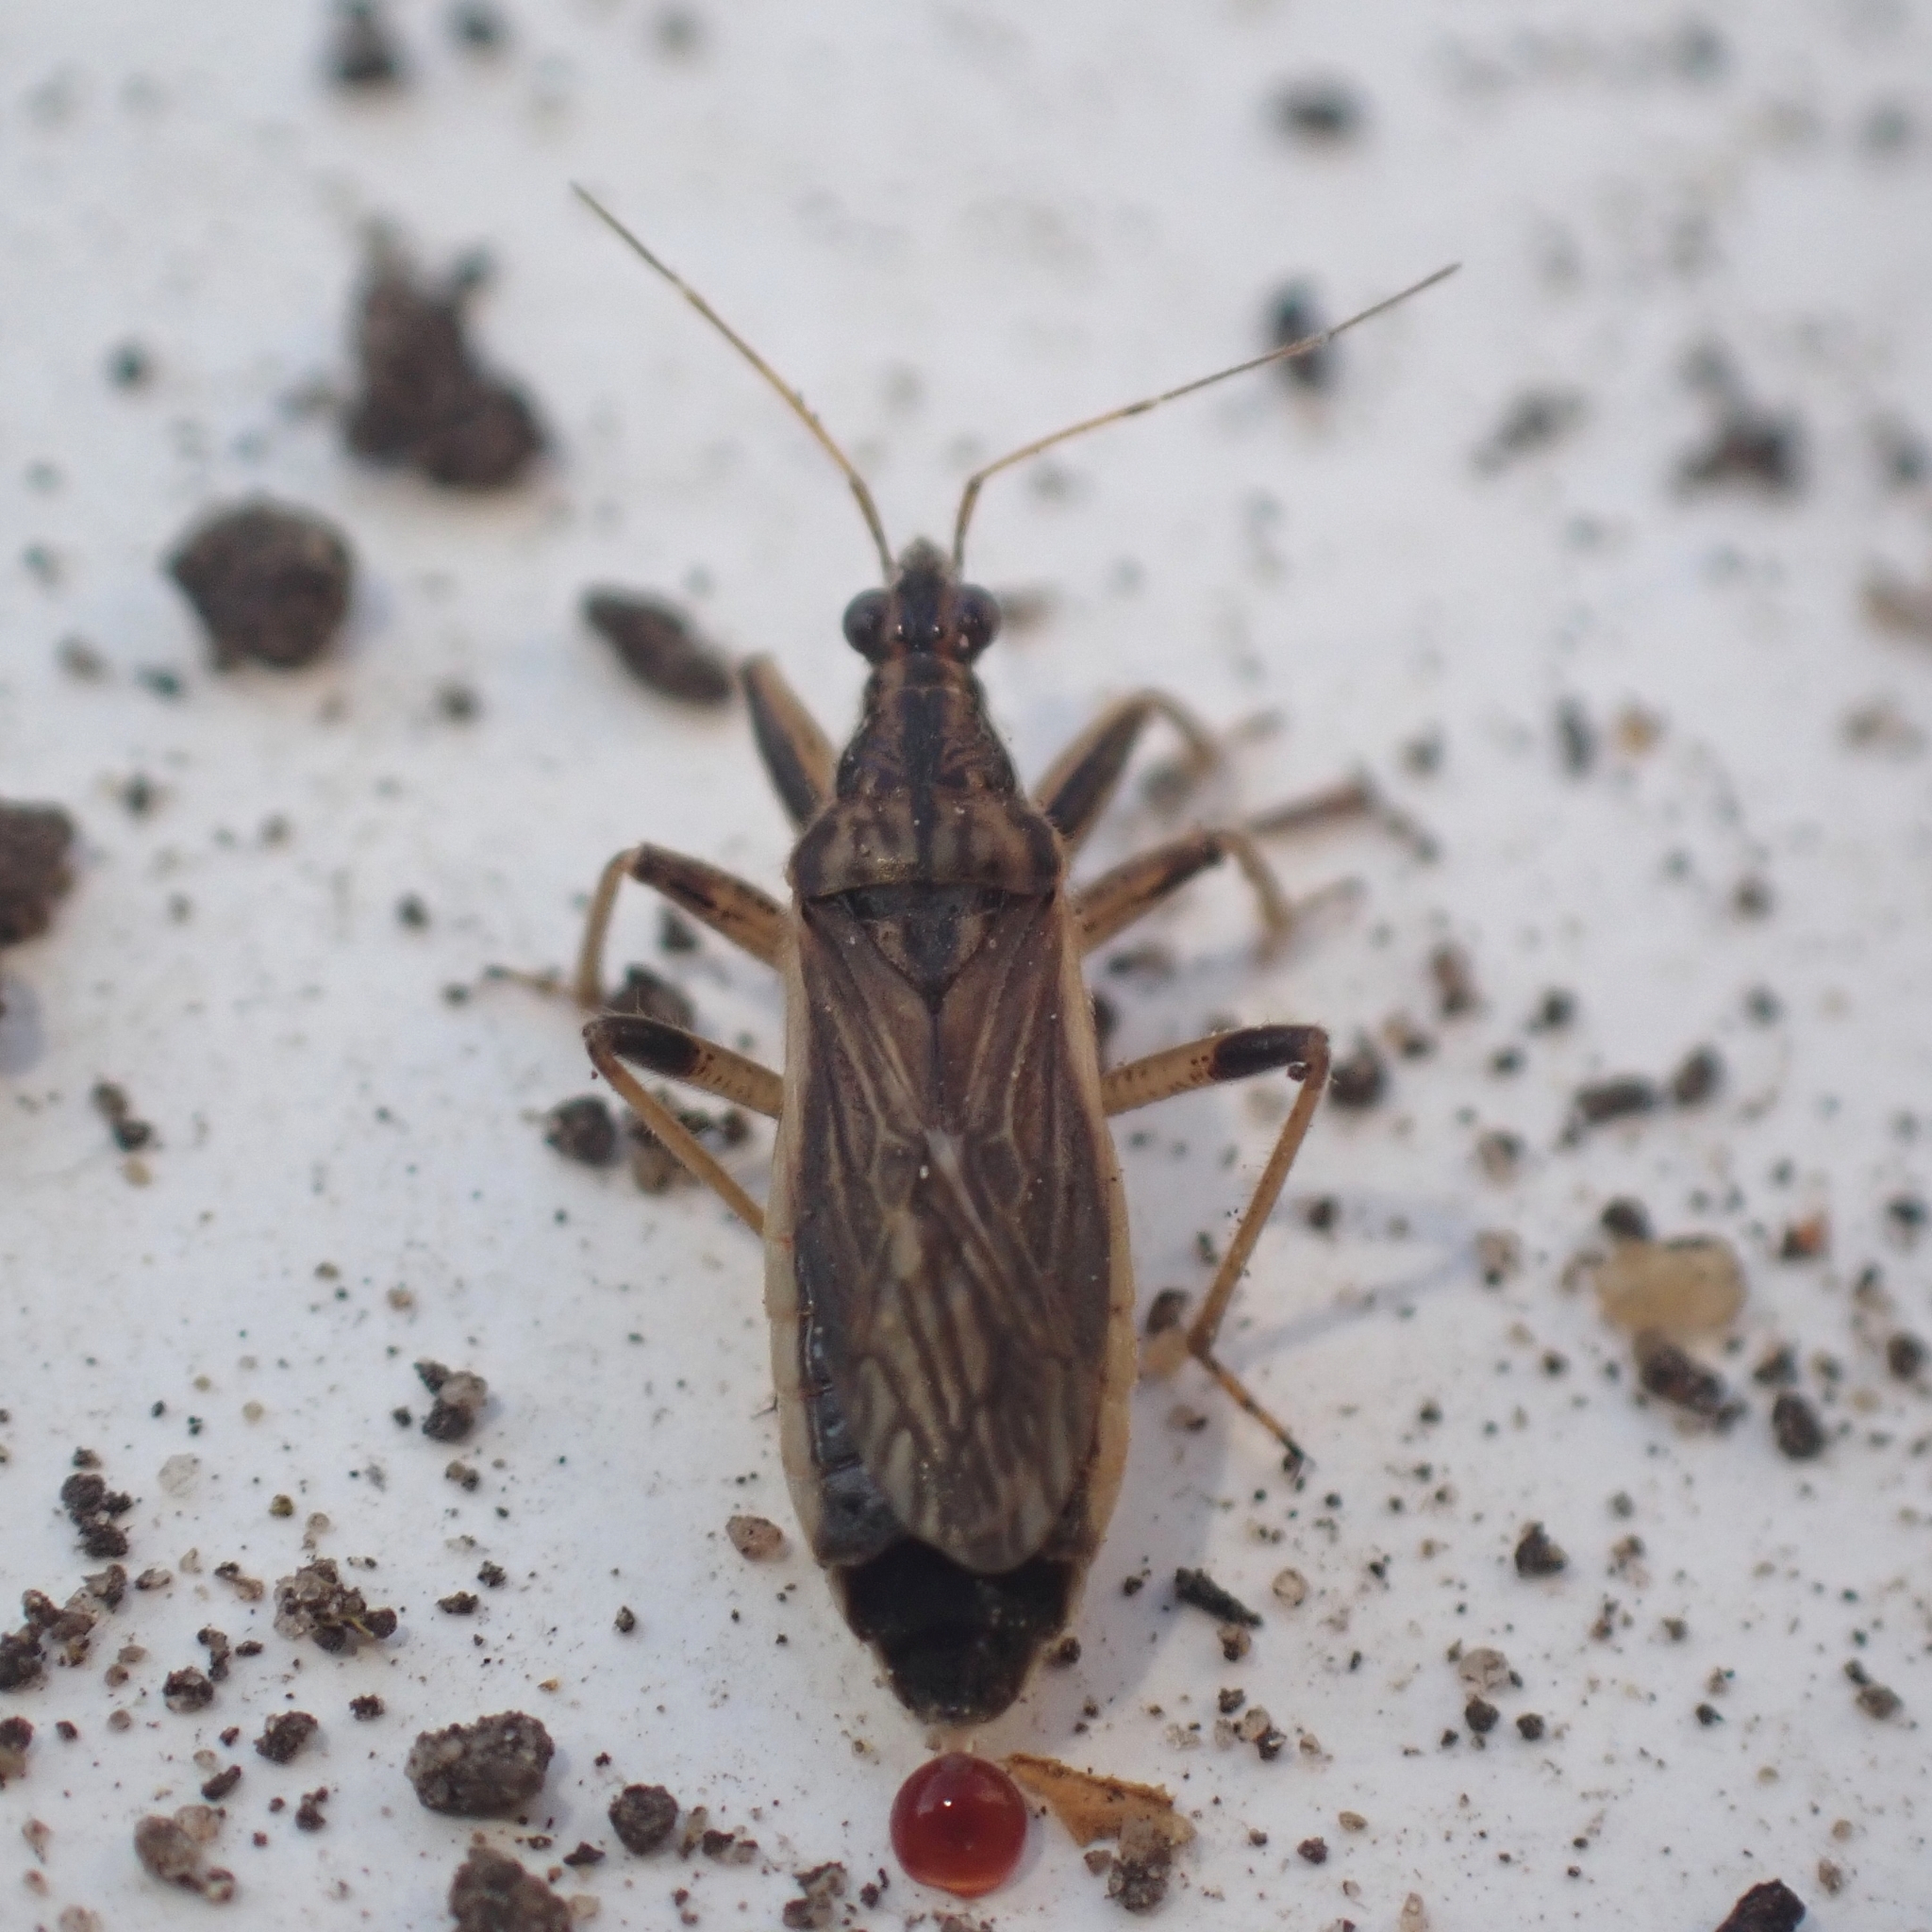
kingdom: Animalia
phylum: Arthropoda
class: Insecta
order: Hemiptera
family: Nabidae
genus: Himacerus
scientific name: Himacerus major
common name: Damsel bug
